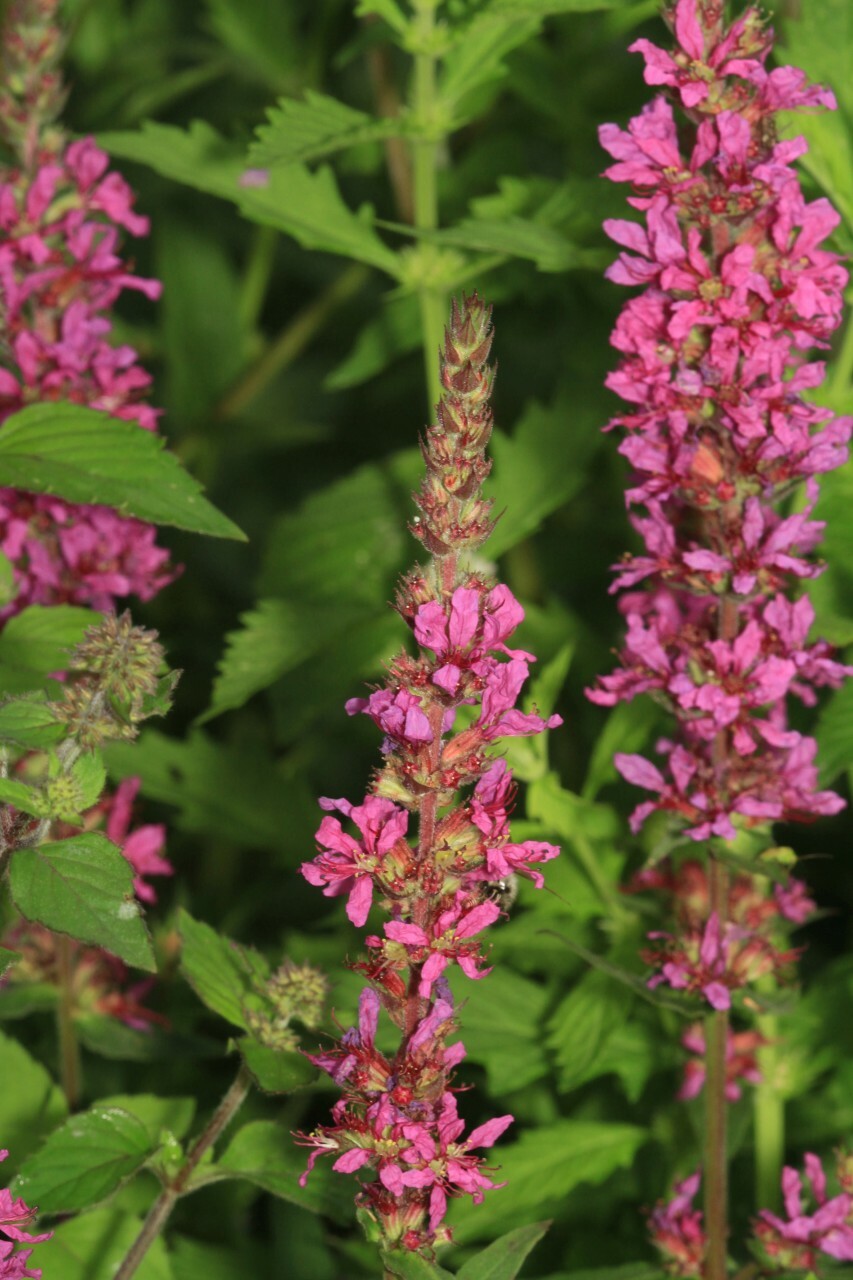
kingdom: Plantae
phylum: Tracheophyta
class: Magnoliopsida
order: Myrtales
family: Lythraceae
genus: Lythrum
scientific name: Lythrum salicaria
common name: Purple loosestrife
